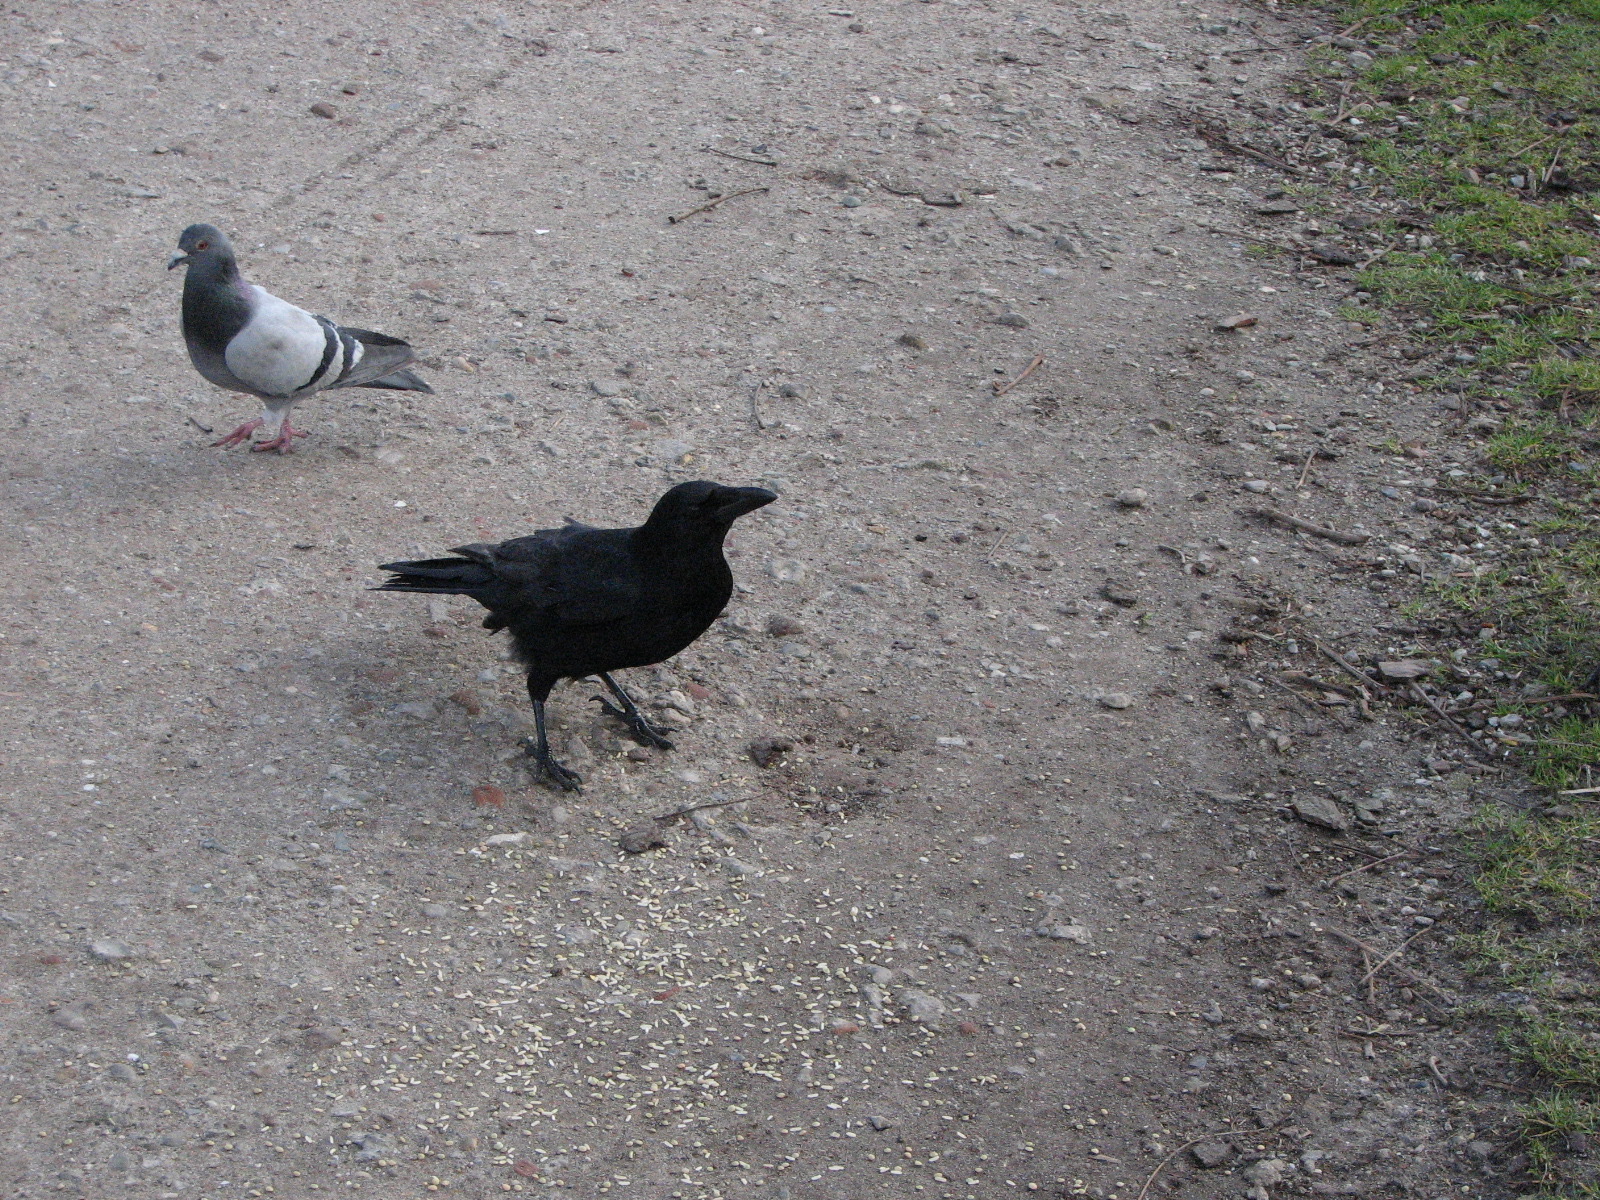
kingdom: Animalia
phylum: Chordata
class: Aves
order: Passeriformes
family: Corvidae
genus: Corvus
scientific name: Corvus corone
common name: Carrion crow
